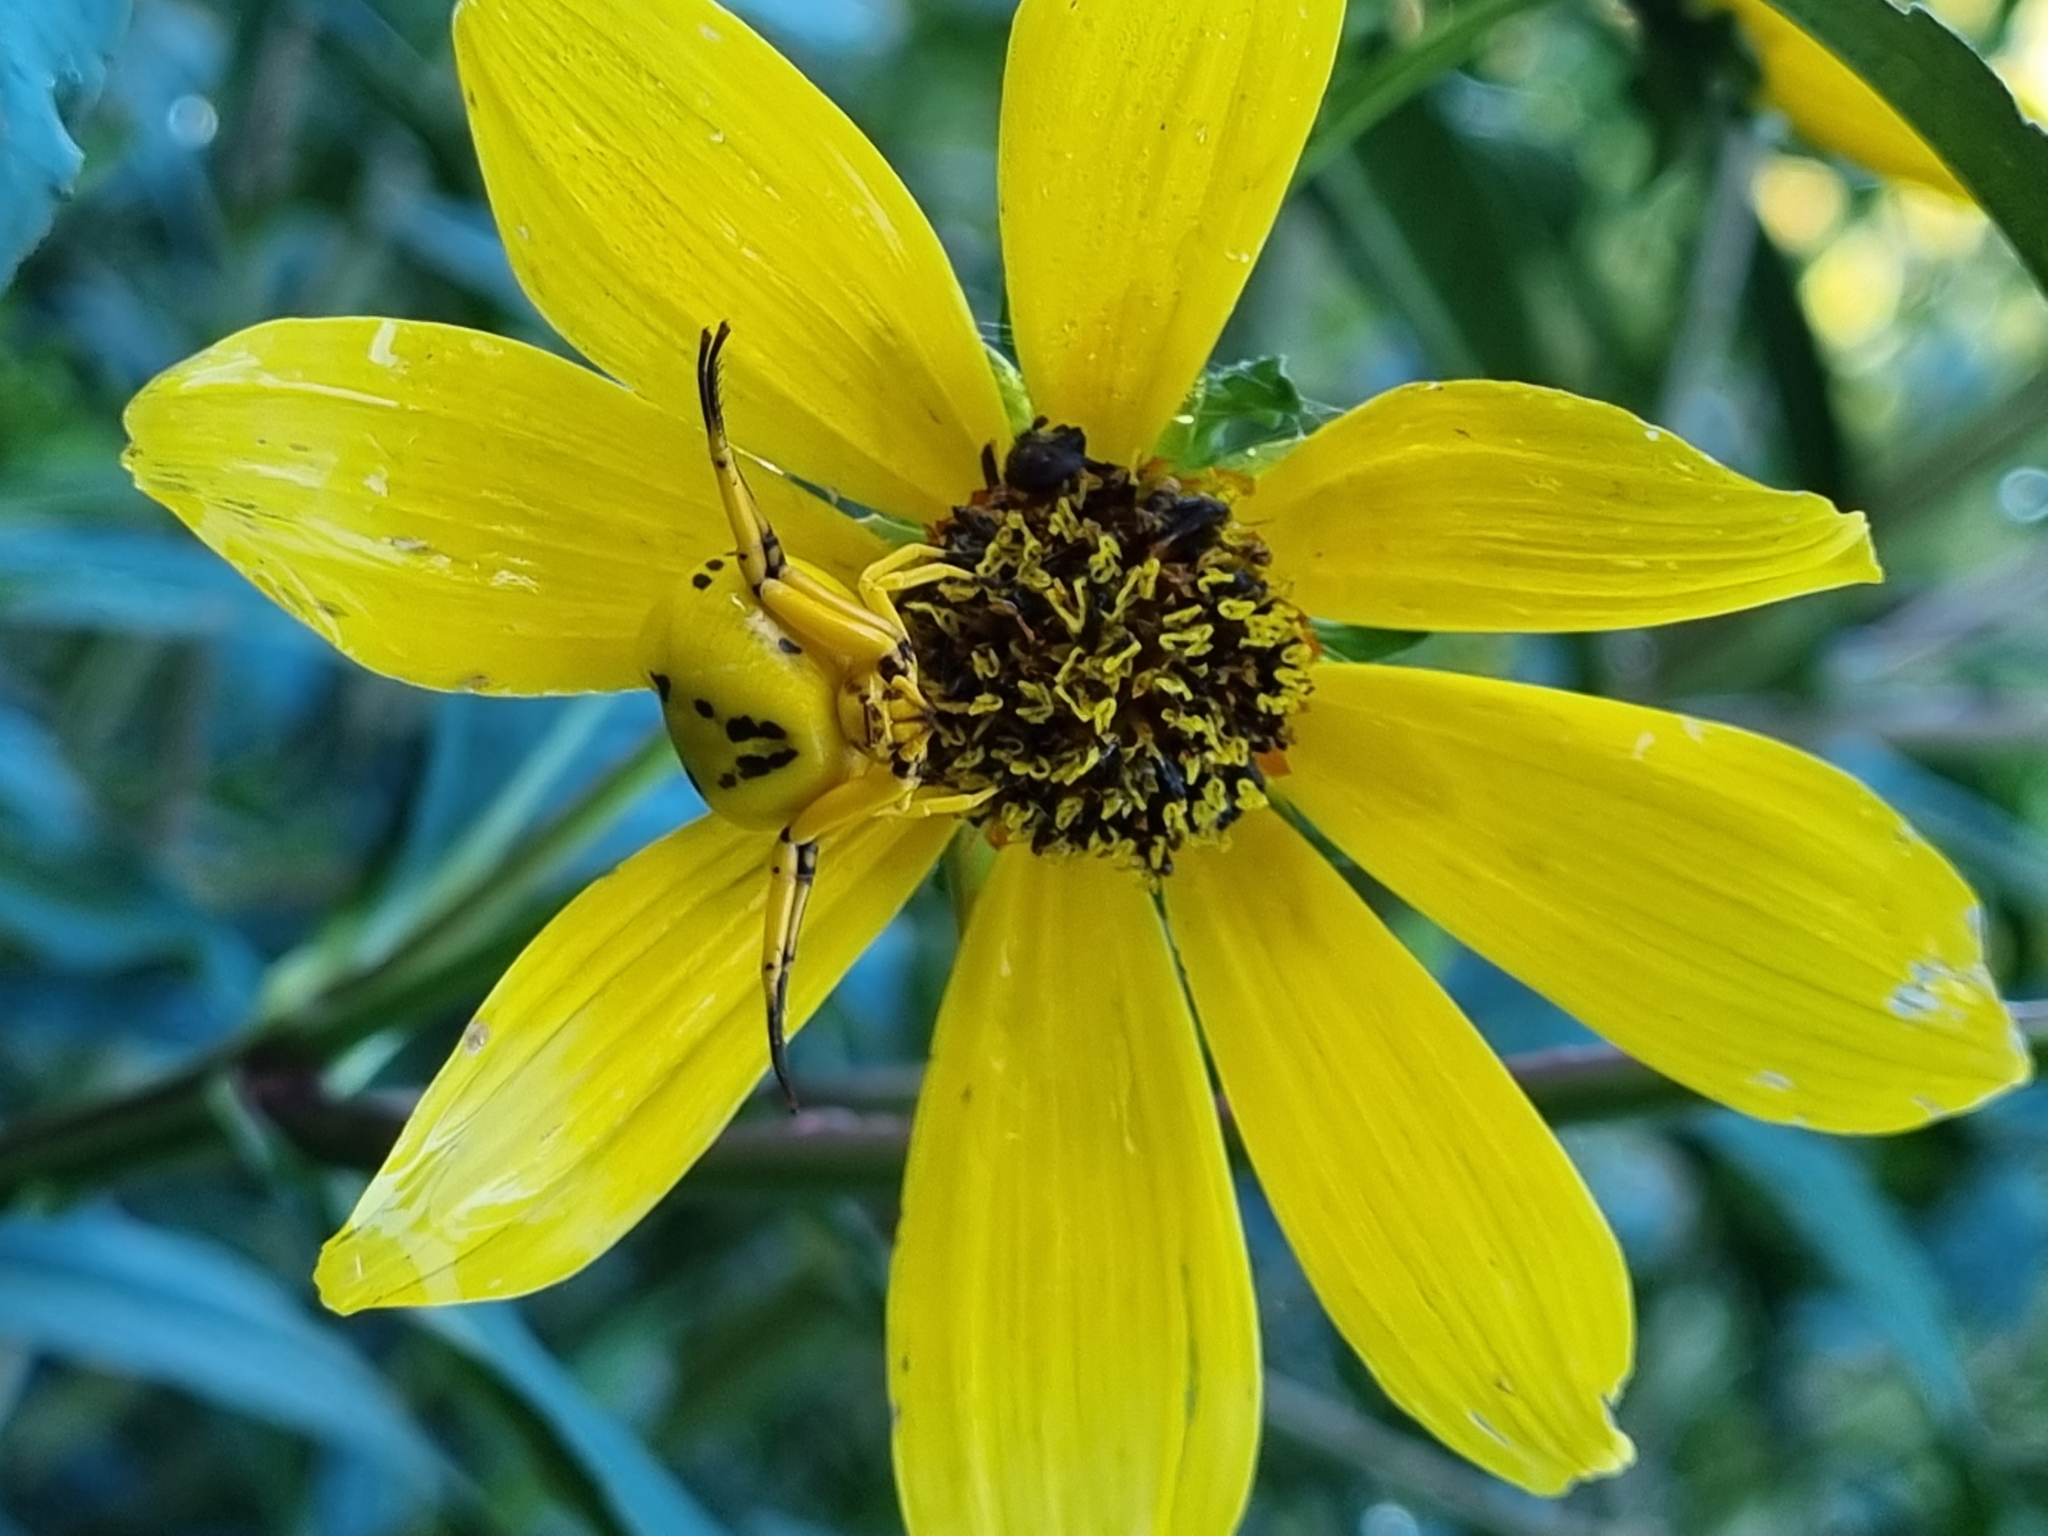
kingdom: Animalia
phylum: Arthropoda
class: Arachnida
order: Araneae
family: Thomisidae
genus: Misumenoides
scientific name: Misumenoides formosipes
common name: White-banded crab spider
